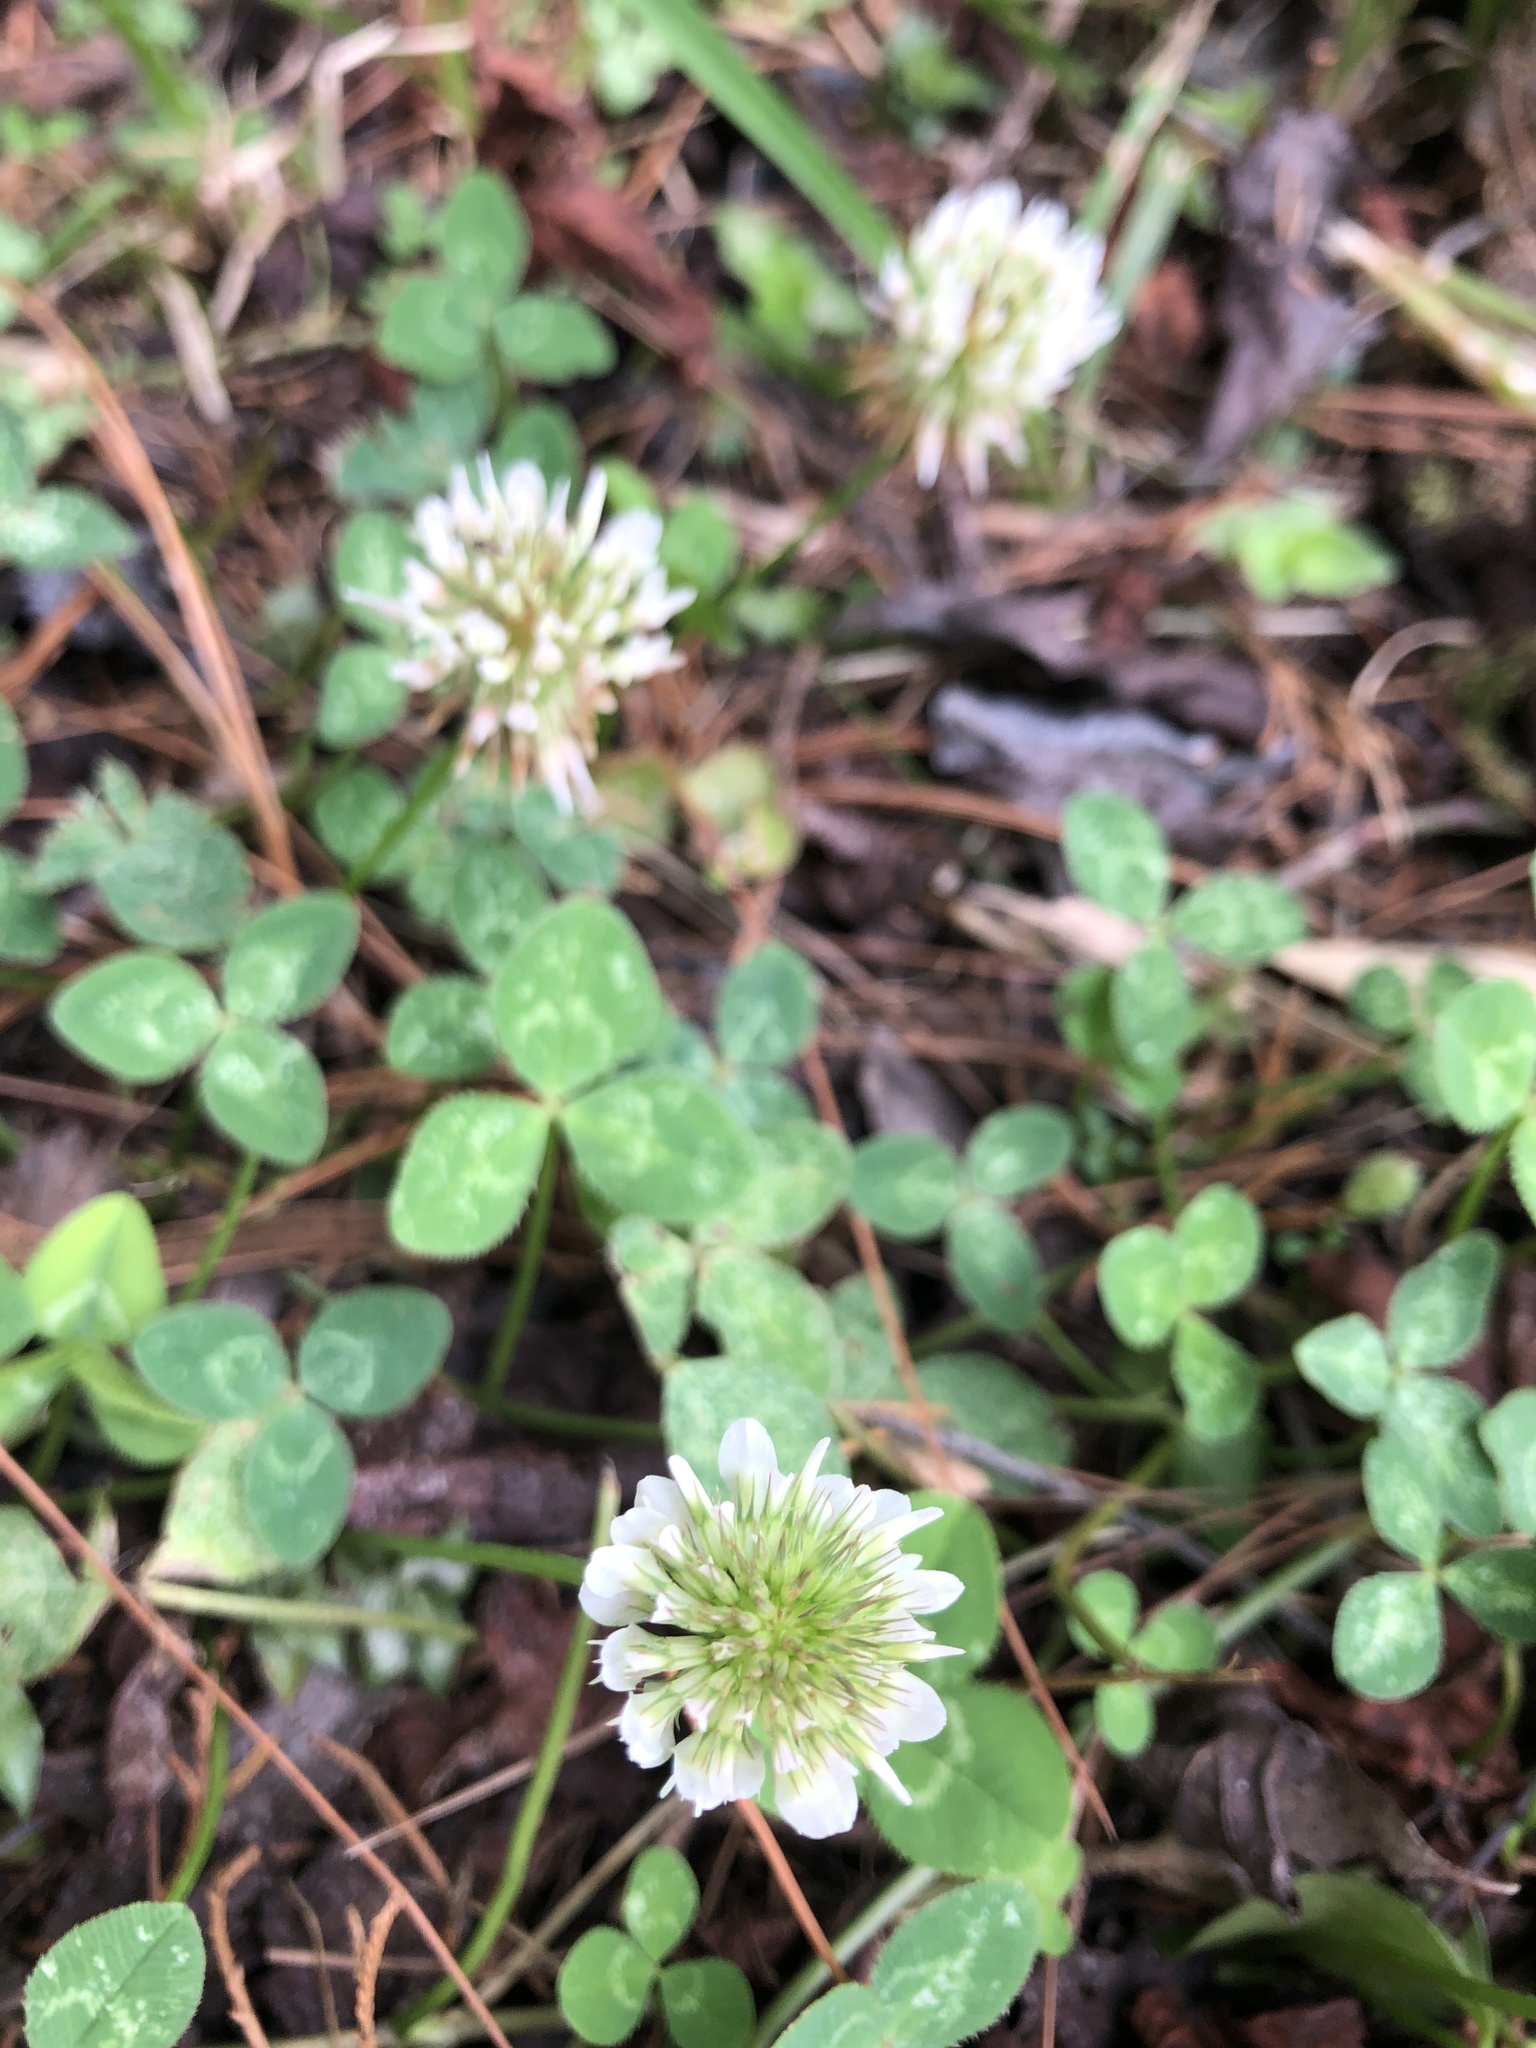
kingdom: Plantae
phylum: Tracheophyta
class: Magnoliopsida
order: Fabales
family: Fabaceae
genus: Trifolium
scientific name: Trifolium repens
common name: White clover
